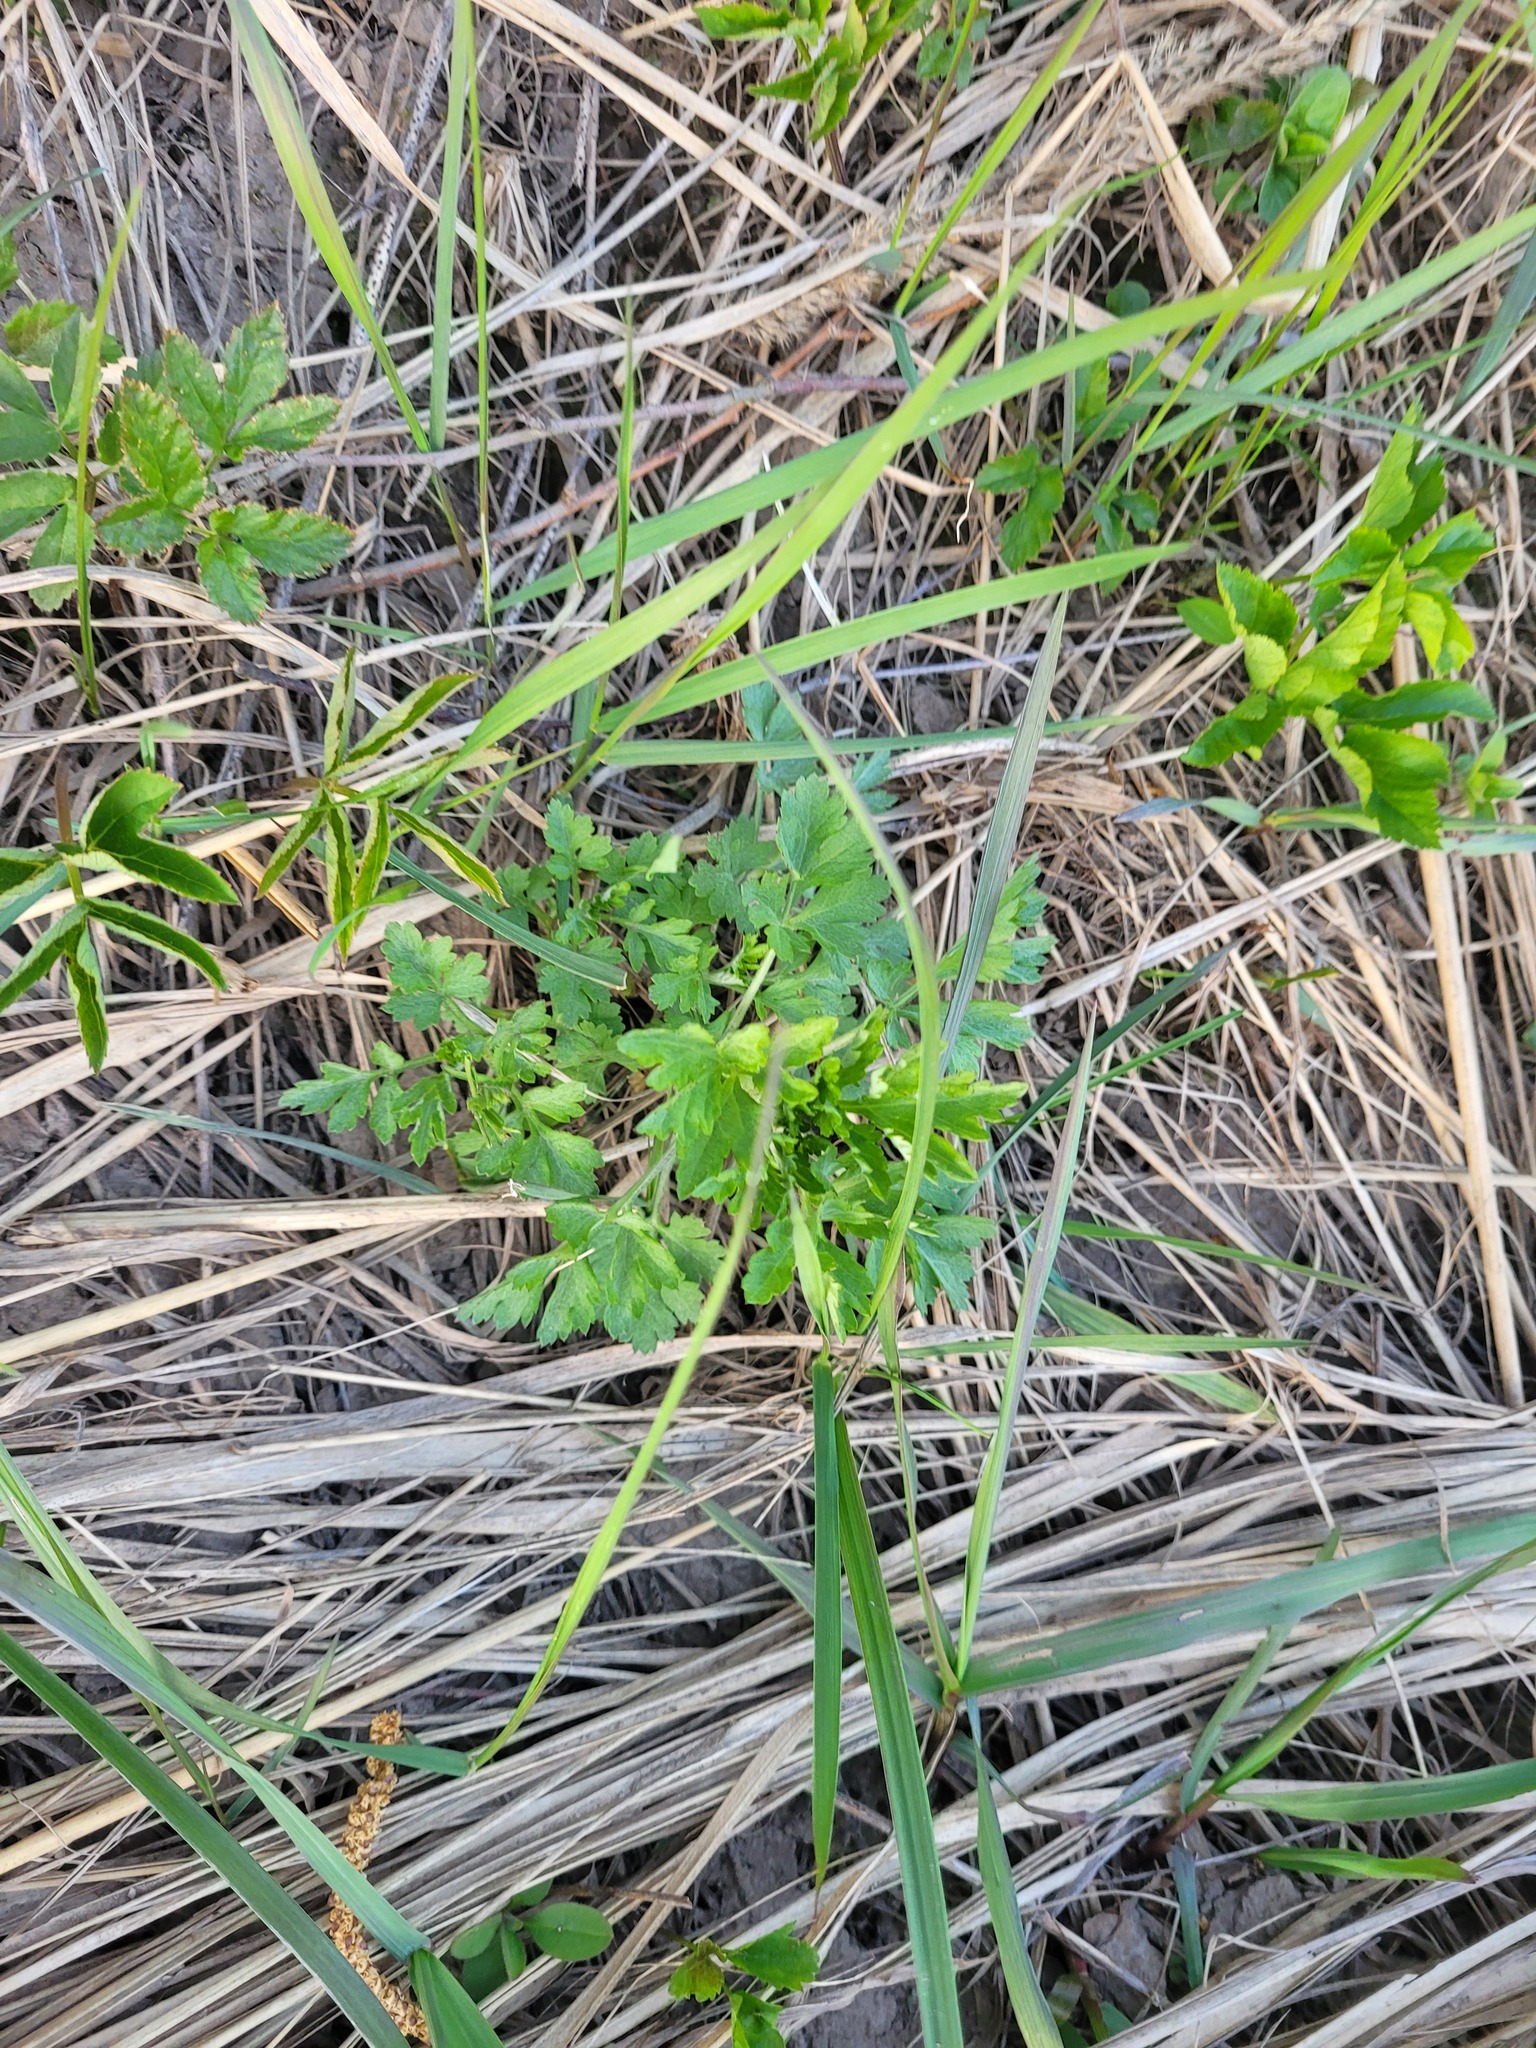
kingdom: Plantae
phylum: Tracheophyta
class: Magnoliopsida
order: Asterales
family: Asteraceae
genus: Artemisia
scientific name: Artemisia vulgaris
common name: Mugwort
